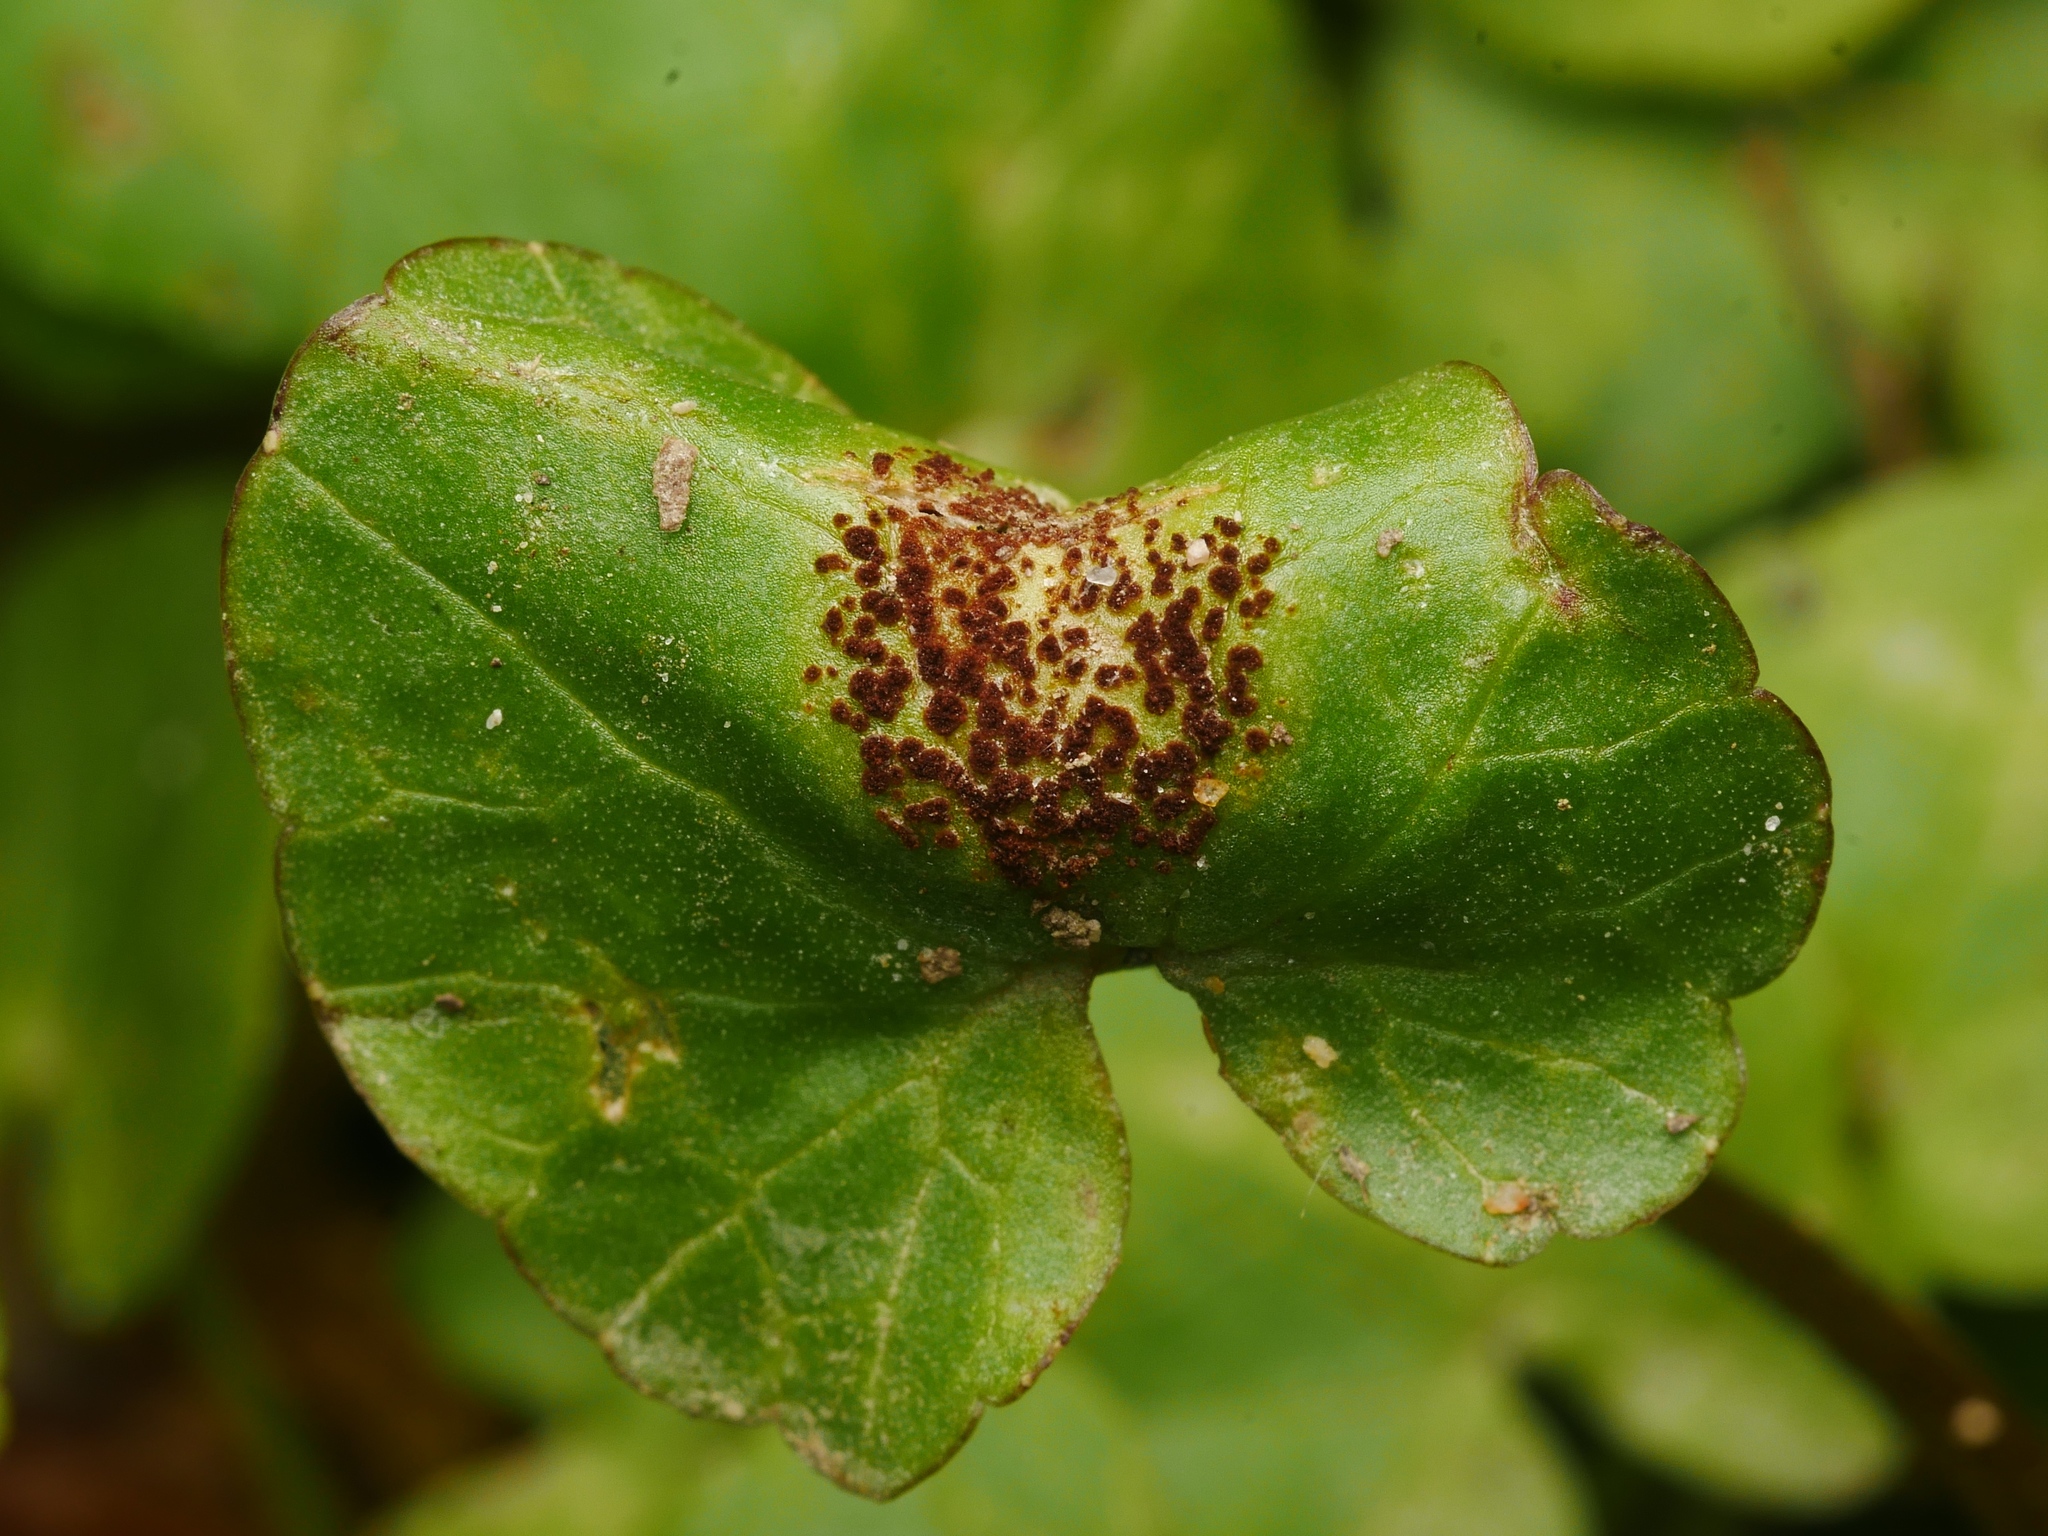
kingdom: Fungi
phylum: Basidiomycota
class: Pucciniomycetes
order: Pucciniales
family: Pucciniaceae
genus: Uromyces
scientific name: Uromyces ficariae
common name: Bitter chocolate rust
